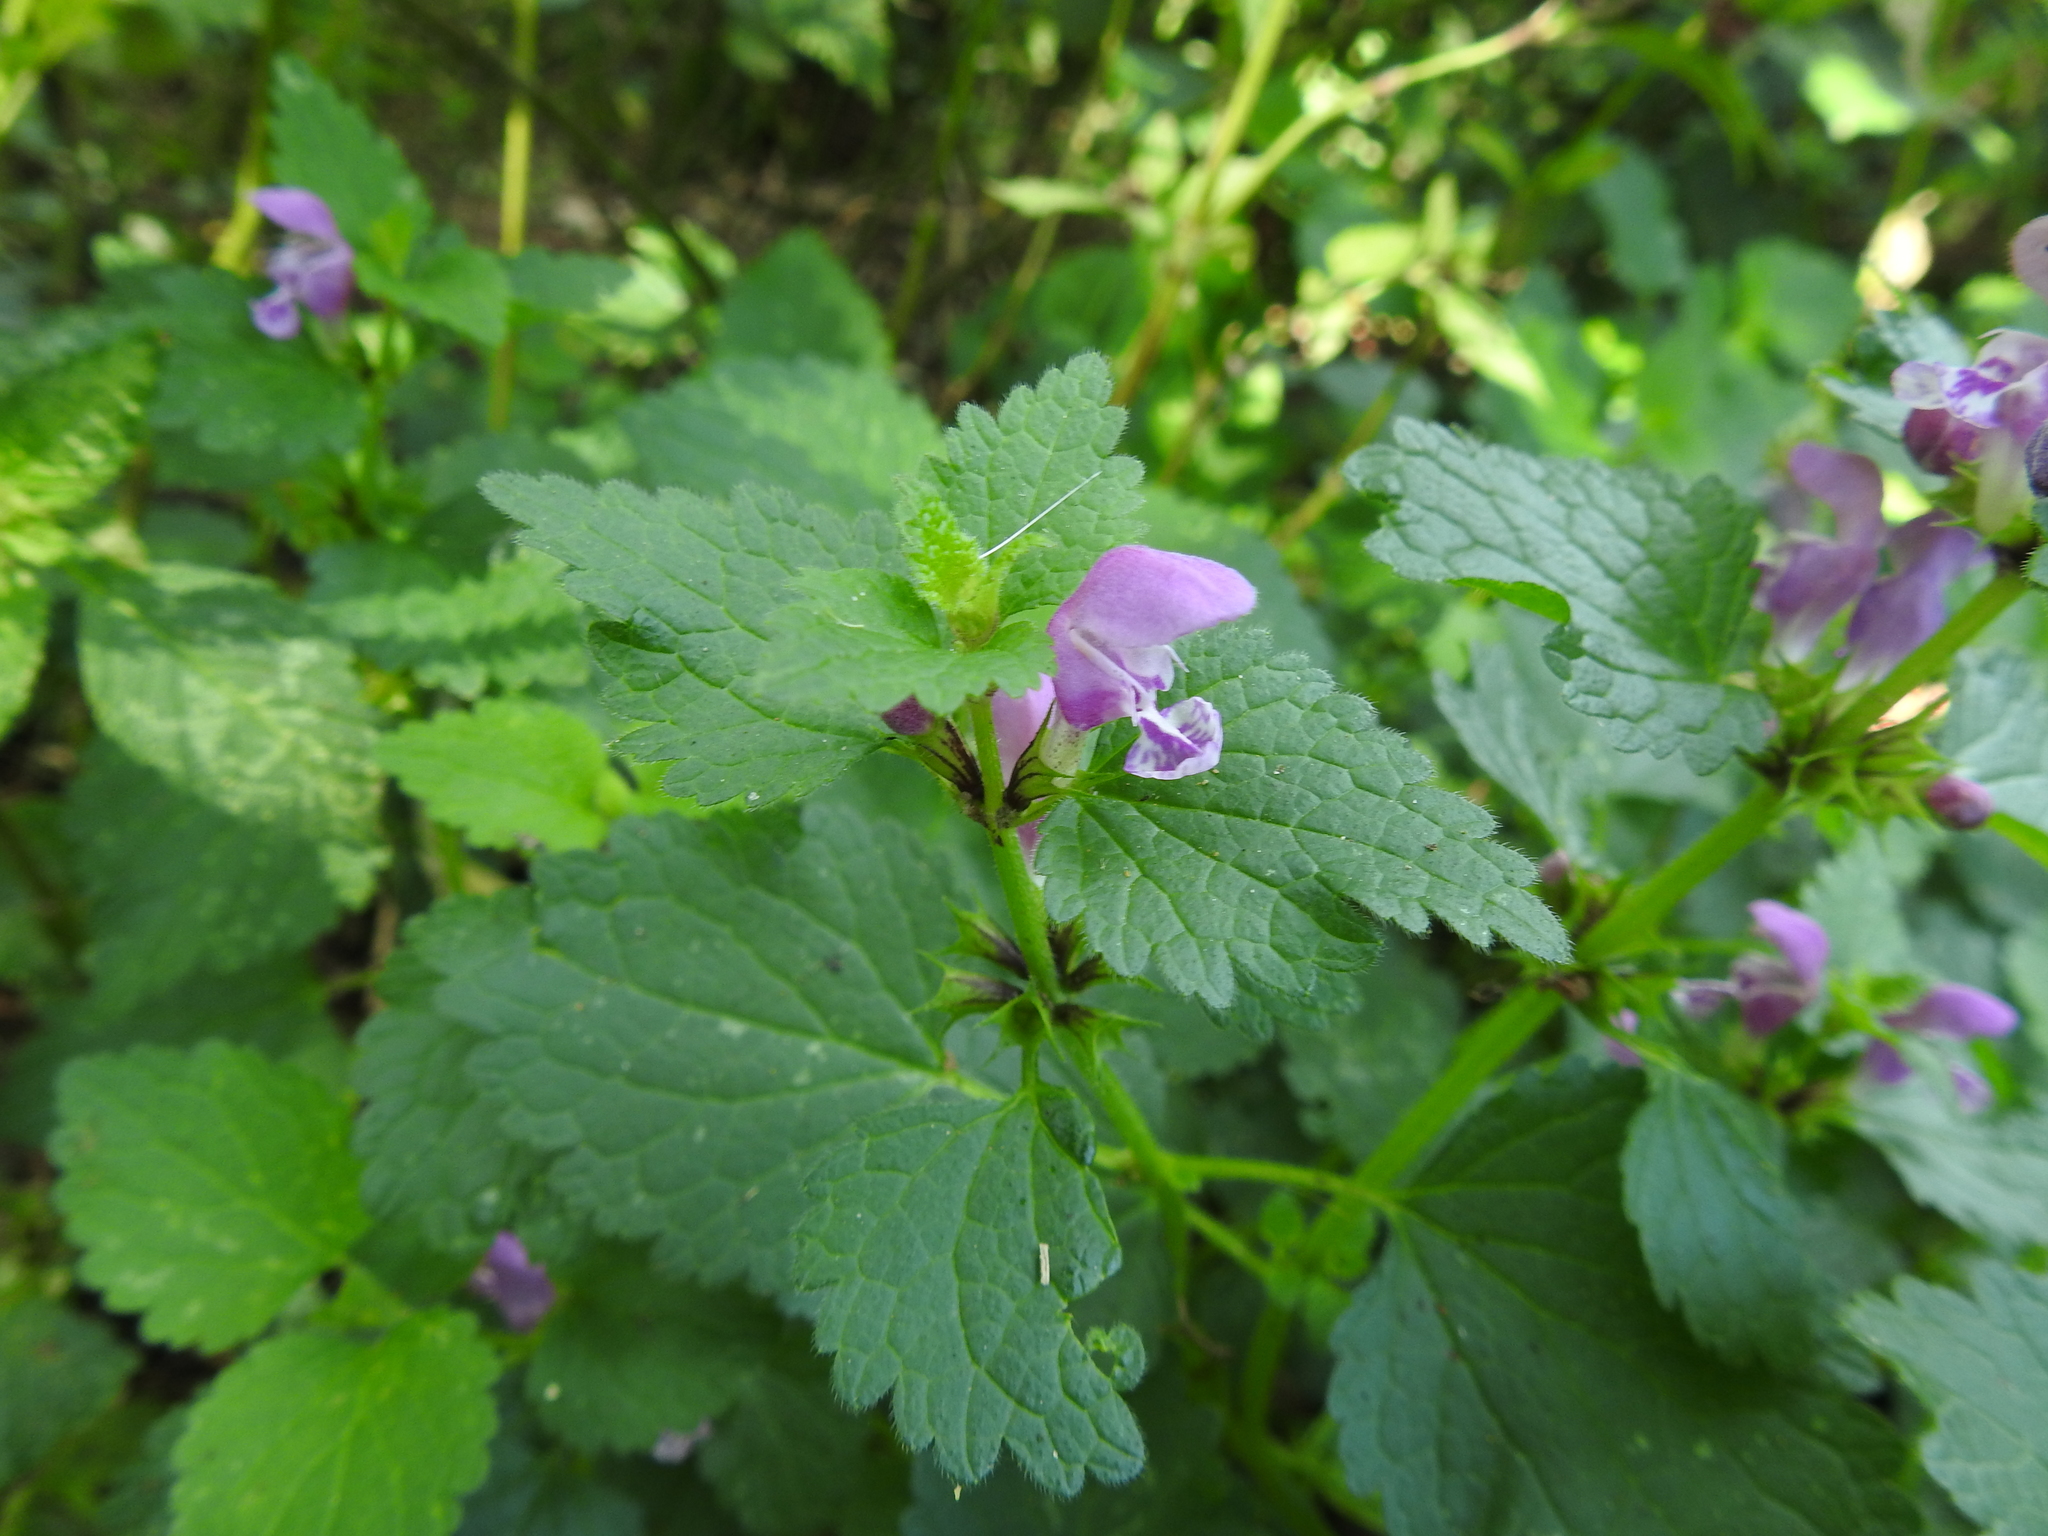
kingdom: Plantae
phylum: Tracheophyta
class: Magnoliopsida
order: Lamiales
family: Lamiaceae
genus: Lamium
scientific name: Lamium maculatum
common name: Spotted dead-nettle
